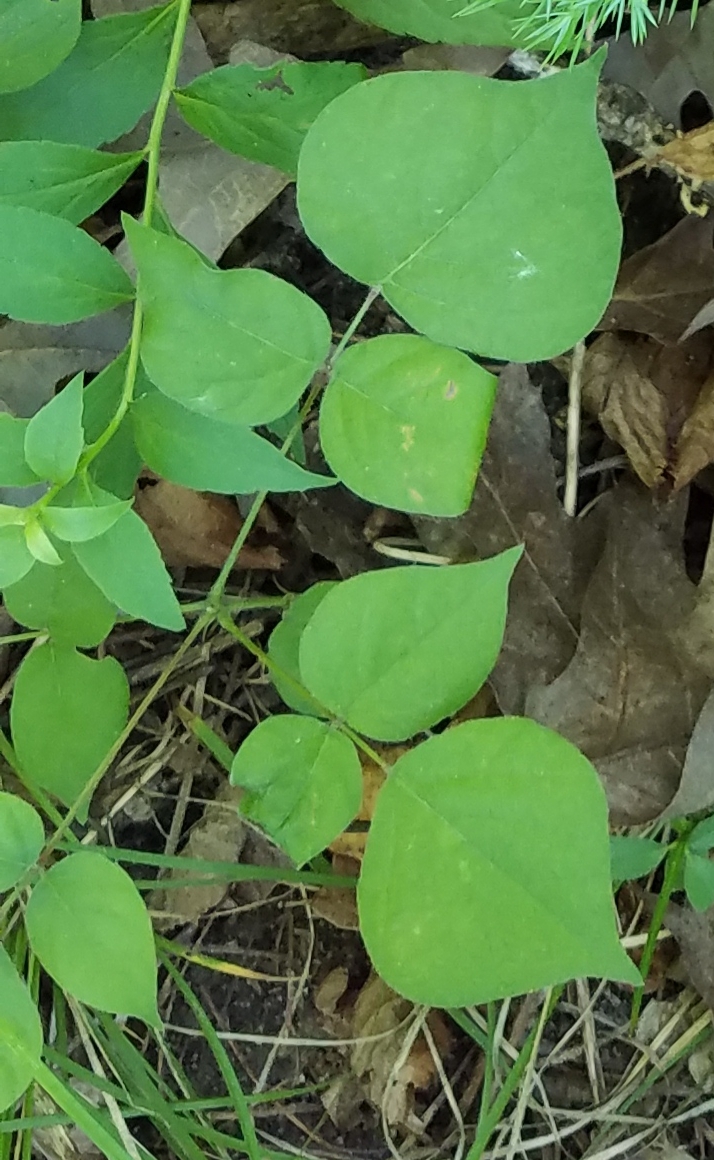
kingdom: Plantae
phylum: Tracheophyta
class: Magnoliopsida
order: Fabales
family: Fabaceae
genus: Hylodesmum
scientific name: Hylodesmum glutinosum
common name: Clustered-leaved tick-trefoil
